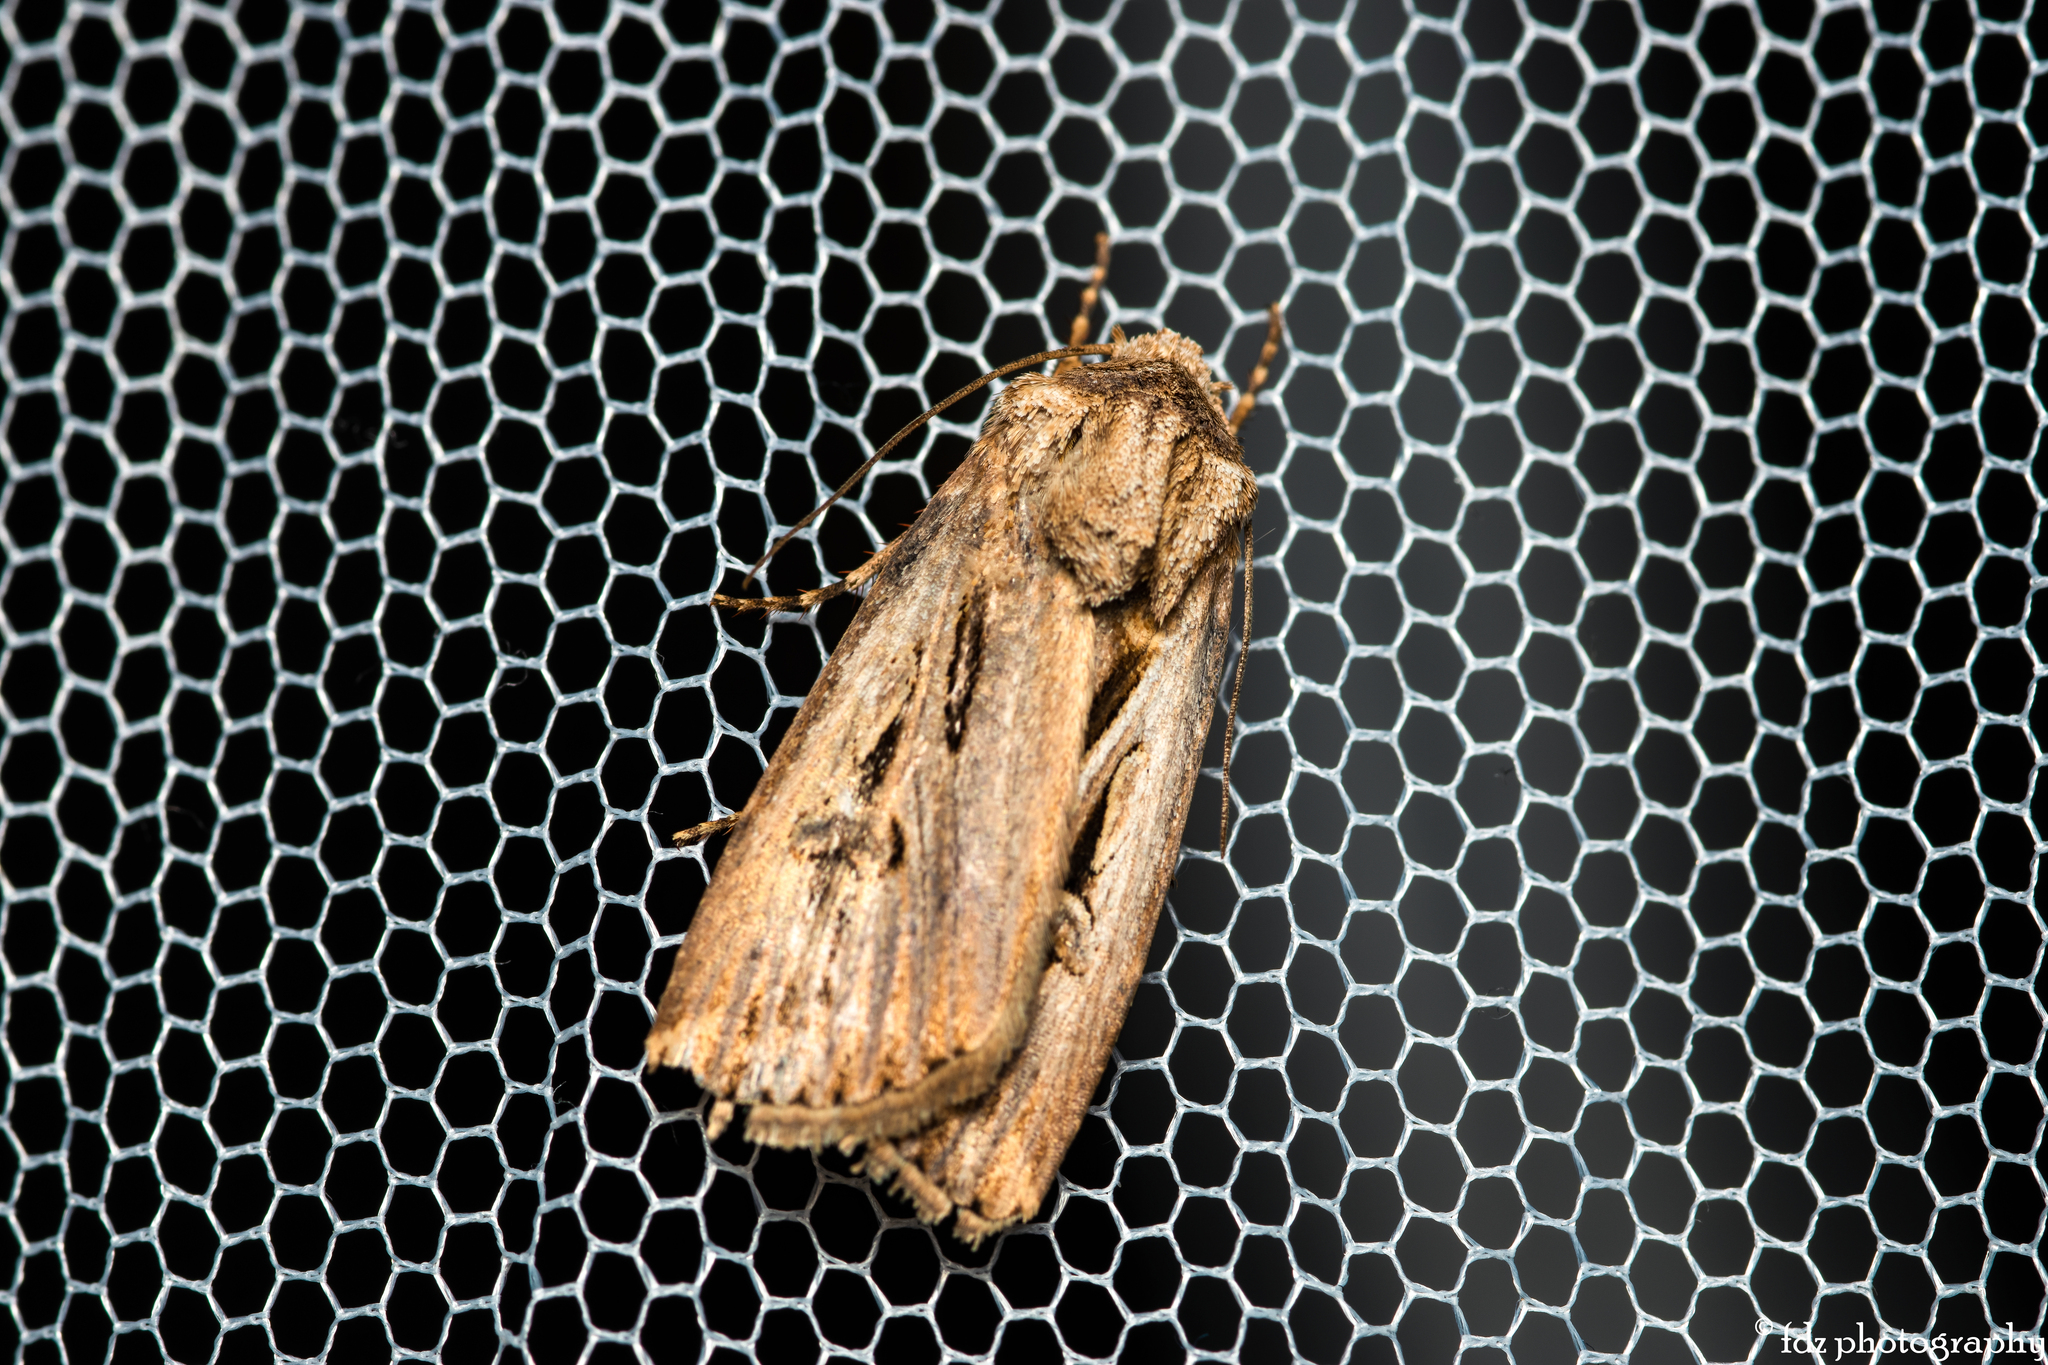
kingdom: Animalia
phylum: Arthropoda
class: Insecta
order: Lepidoptera
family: Noctuidae
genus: Agrotis
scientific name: Agrotis
